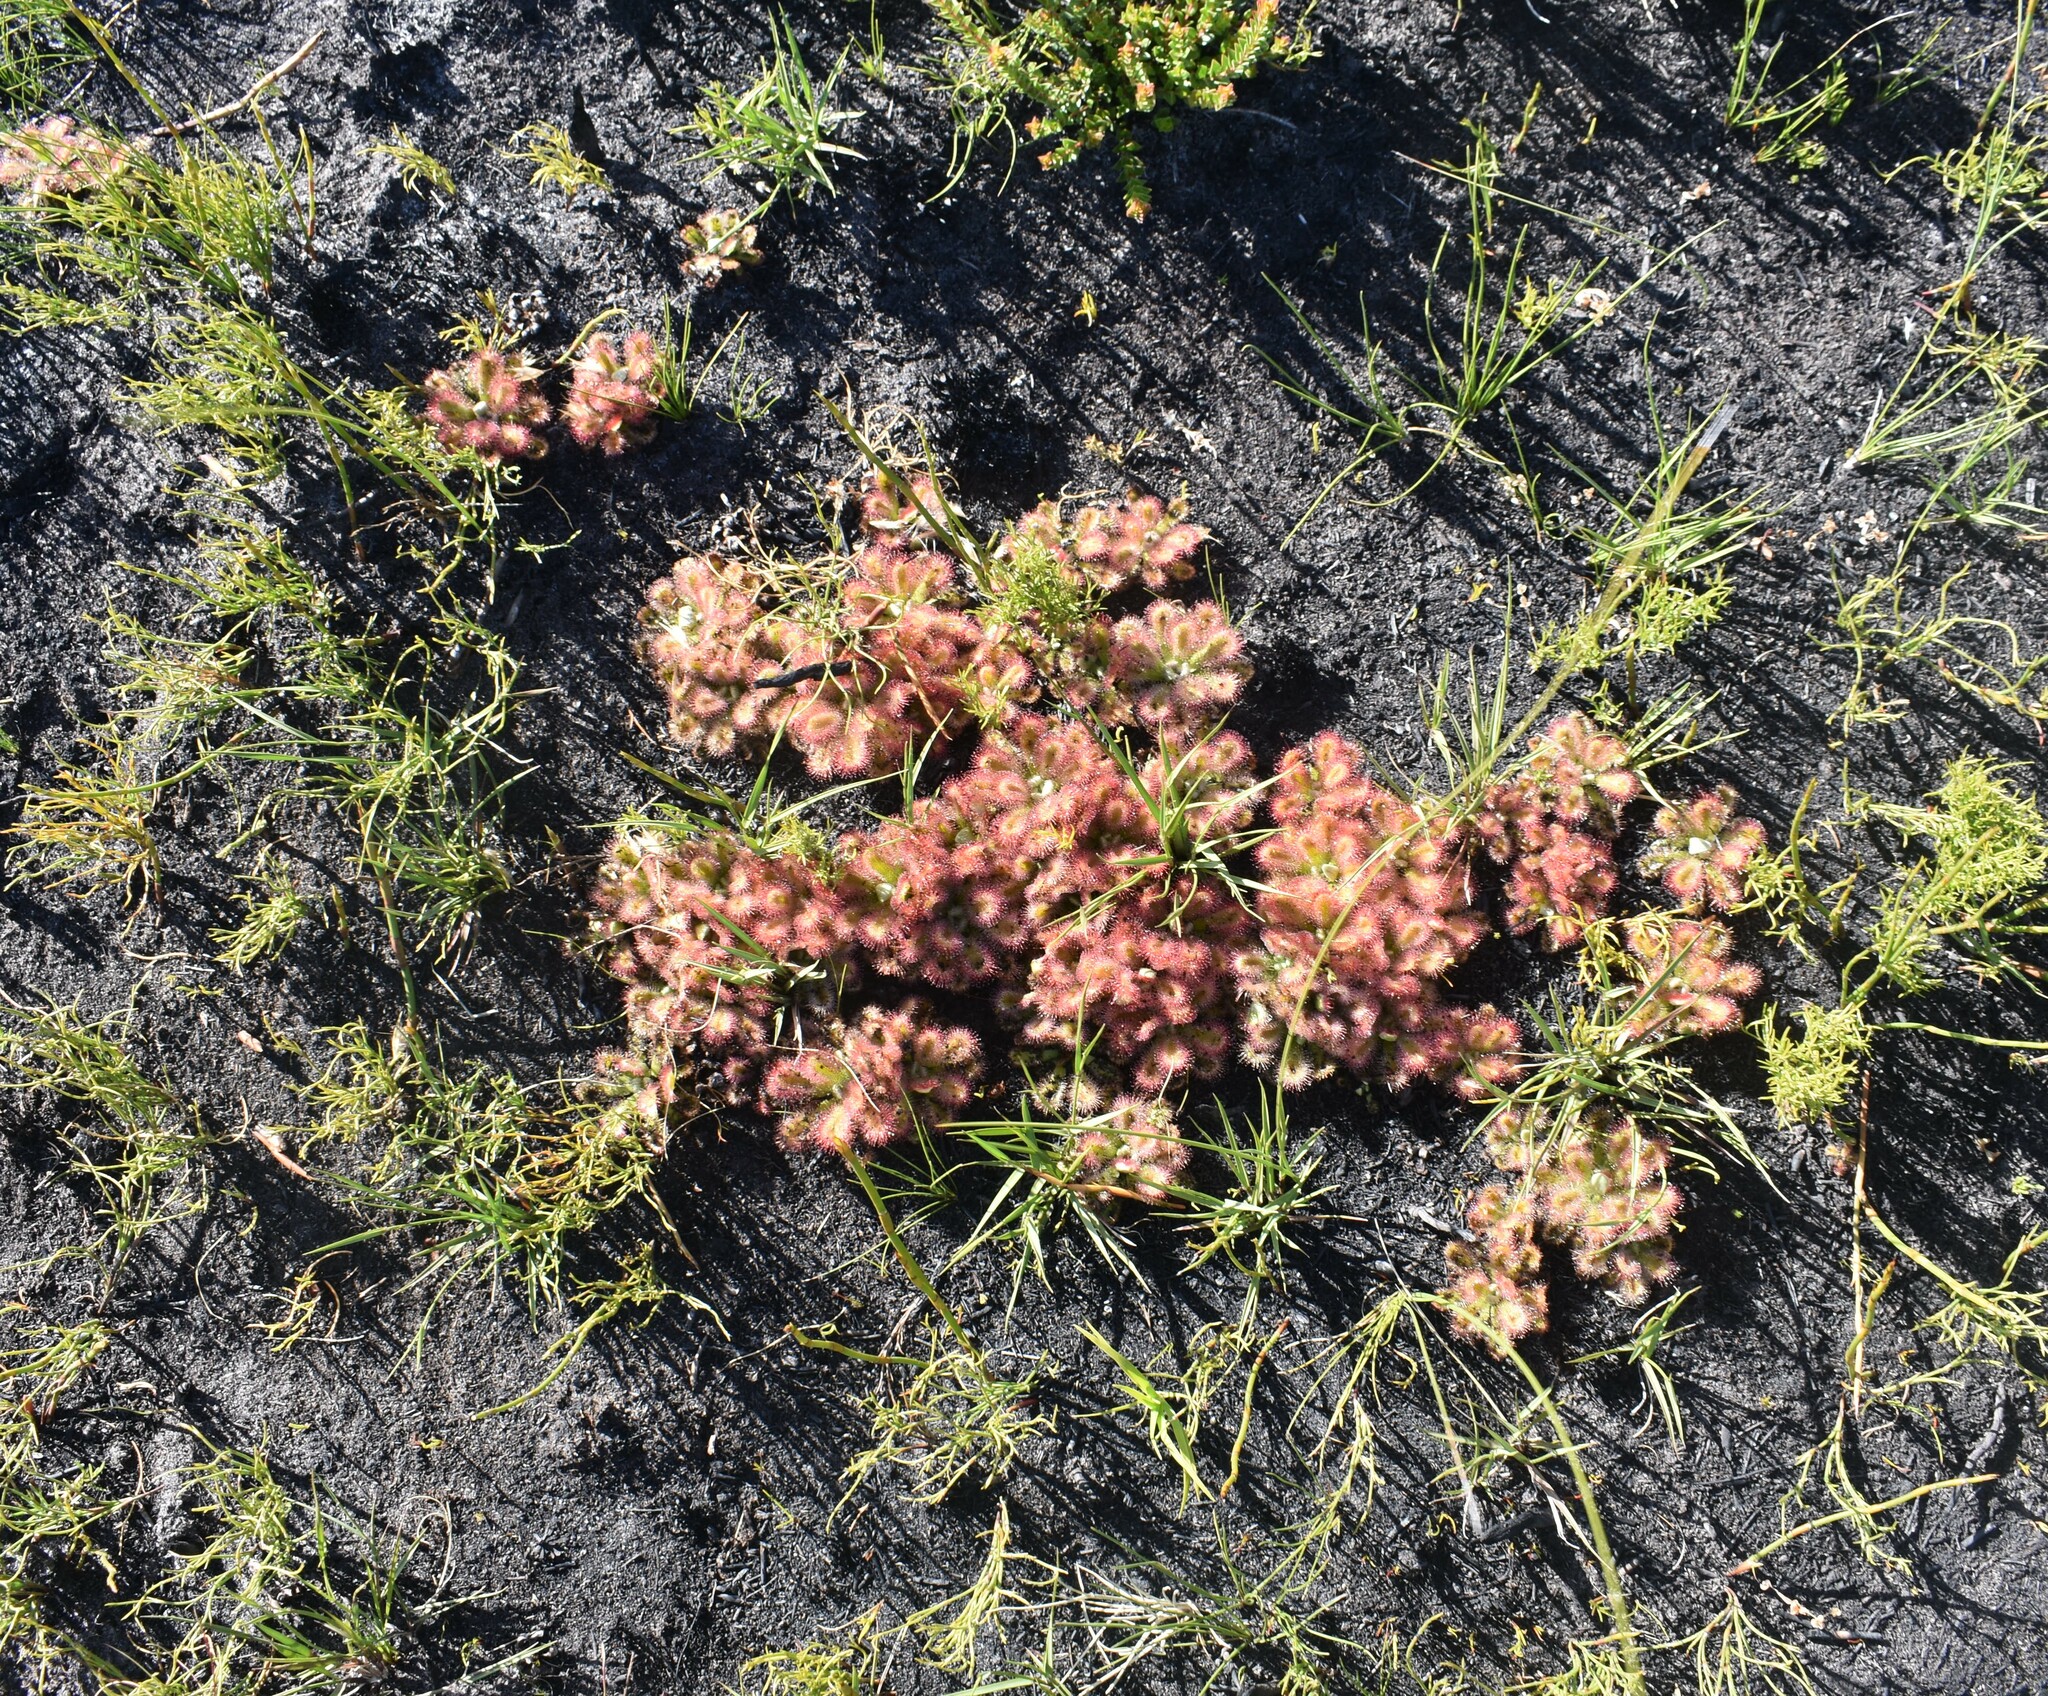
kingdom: Plantae
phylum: Tracheophyta
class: Magnoliopsida
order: Caryophyllales
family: Droseraceae
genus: Drosera
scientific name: Drosera aliciae
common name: Alice sundew
